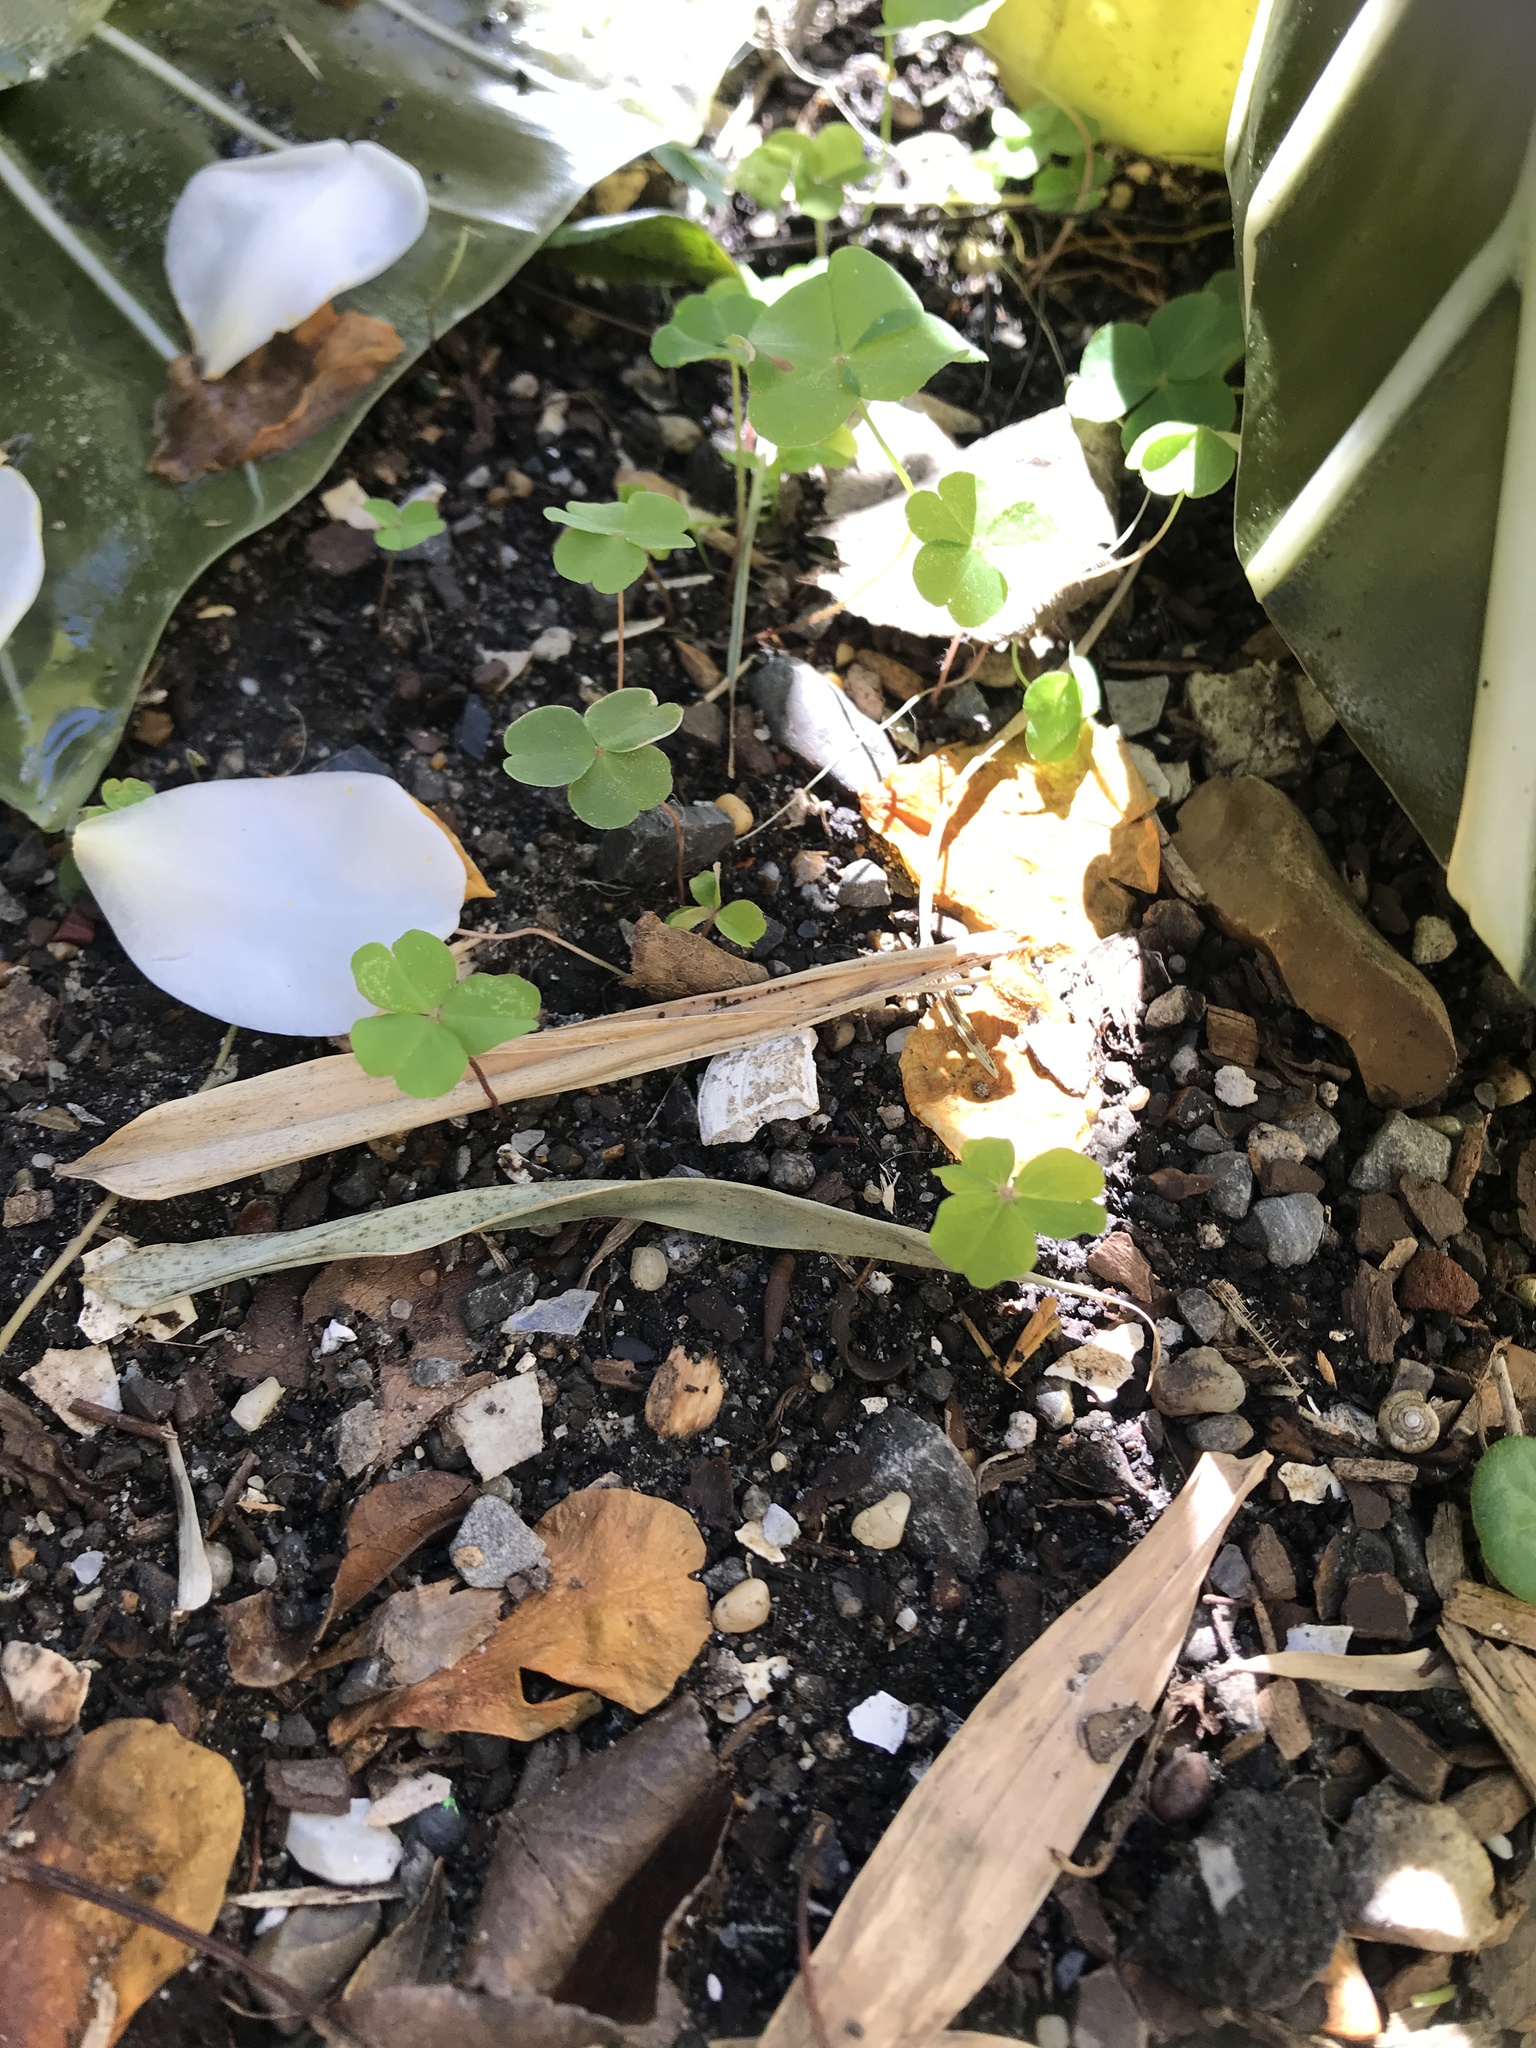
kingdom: Plantae
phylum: Tracheophyta
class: Magnoliopsida
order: Oxalidales
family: Oxalidaceae
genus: Oxalis
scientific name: Oxalis debilis
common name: Large-flowered pink-sorrel
